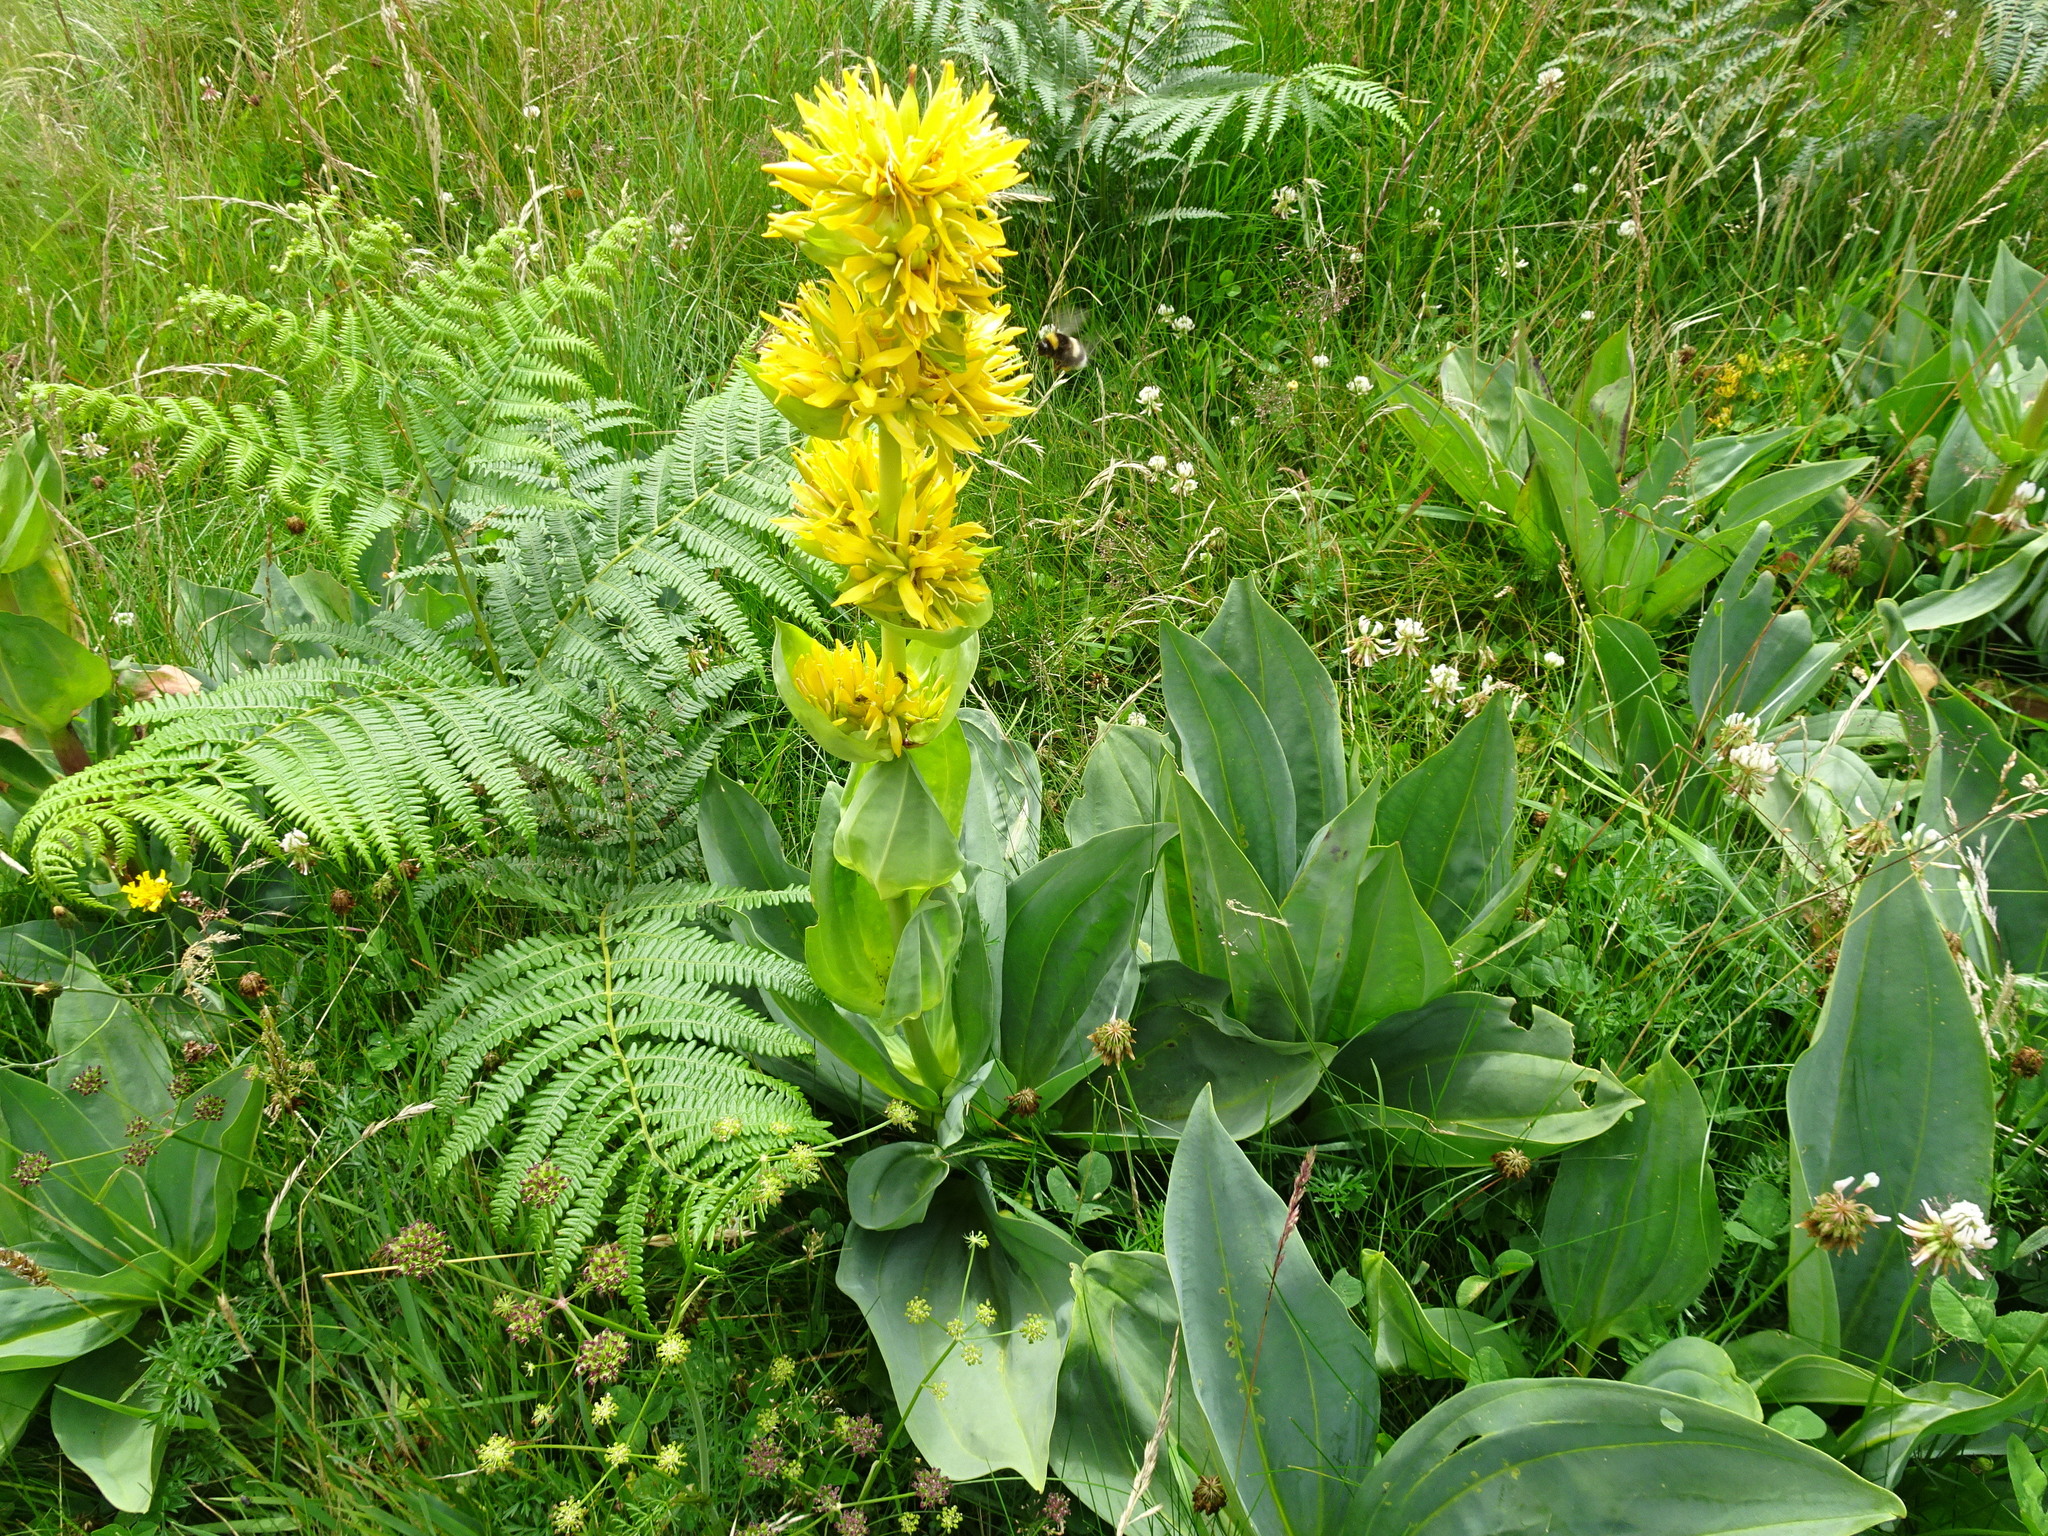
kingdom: Plantae
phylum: Tracheophyta
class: Magnoliopsida
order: Gentianales
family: Gentianaceae
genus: Gentiana
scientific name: Gentiana lutea
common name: Great yellow gentian
